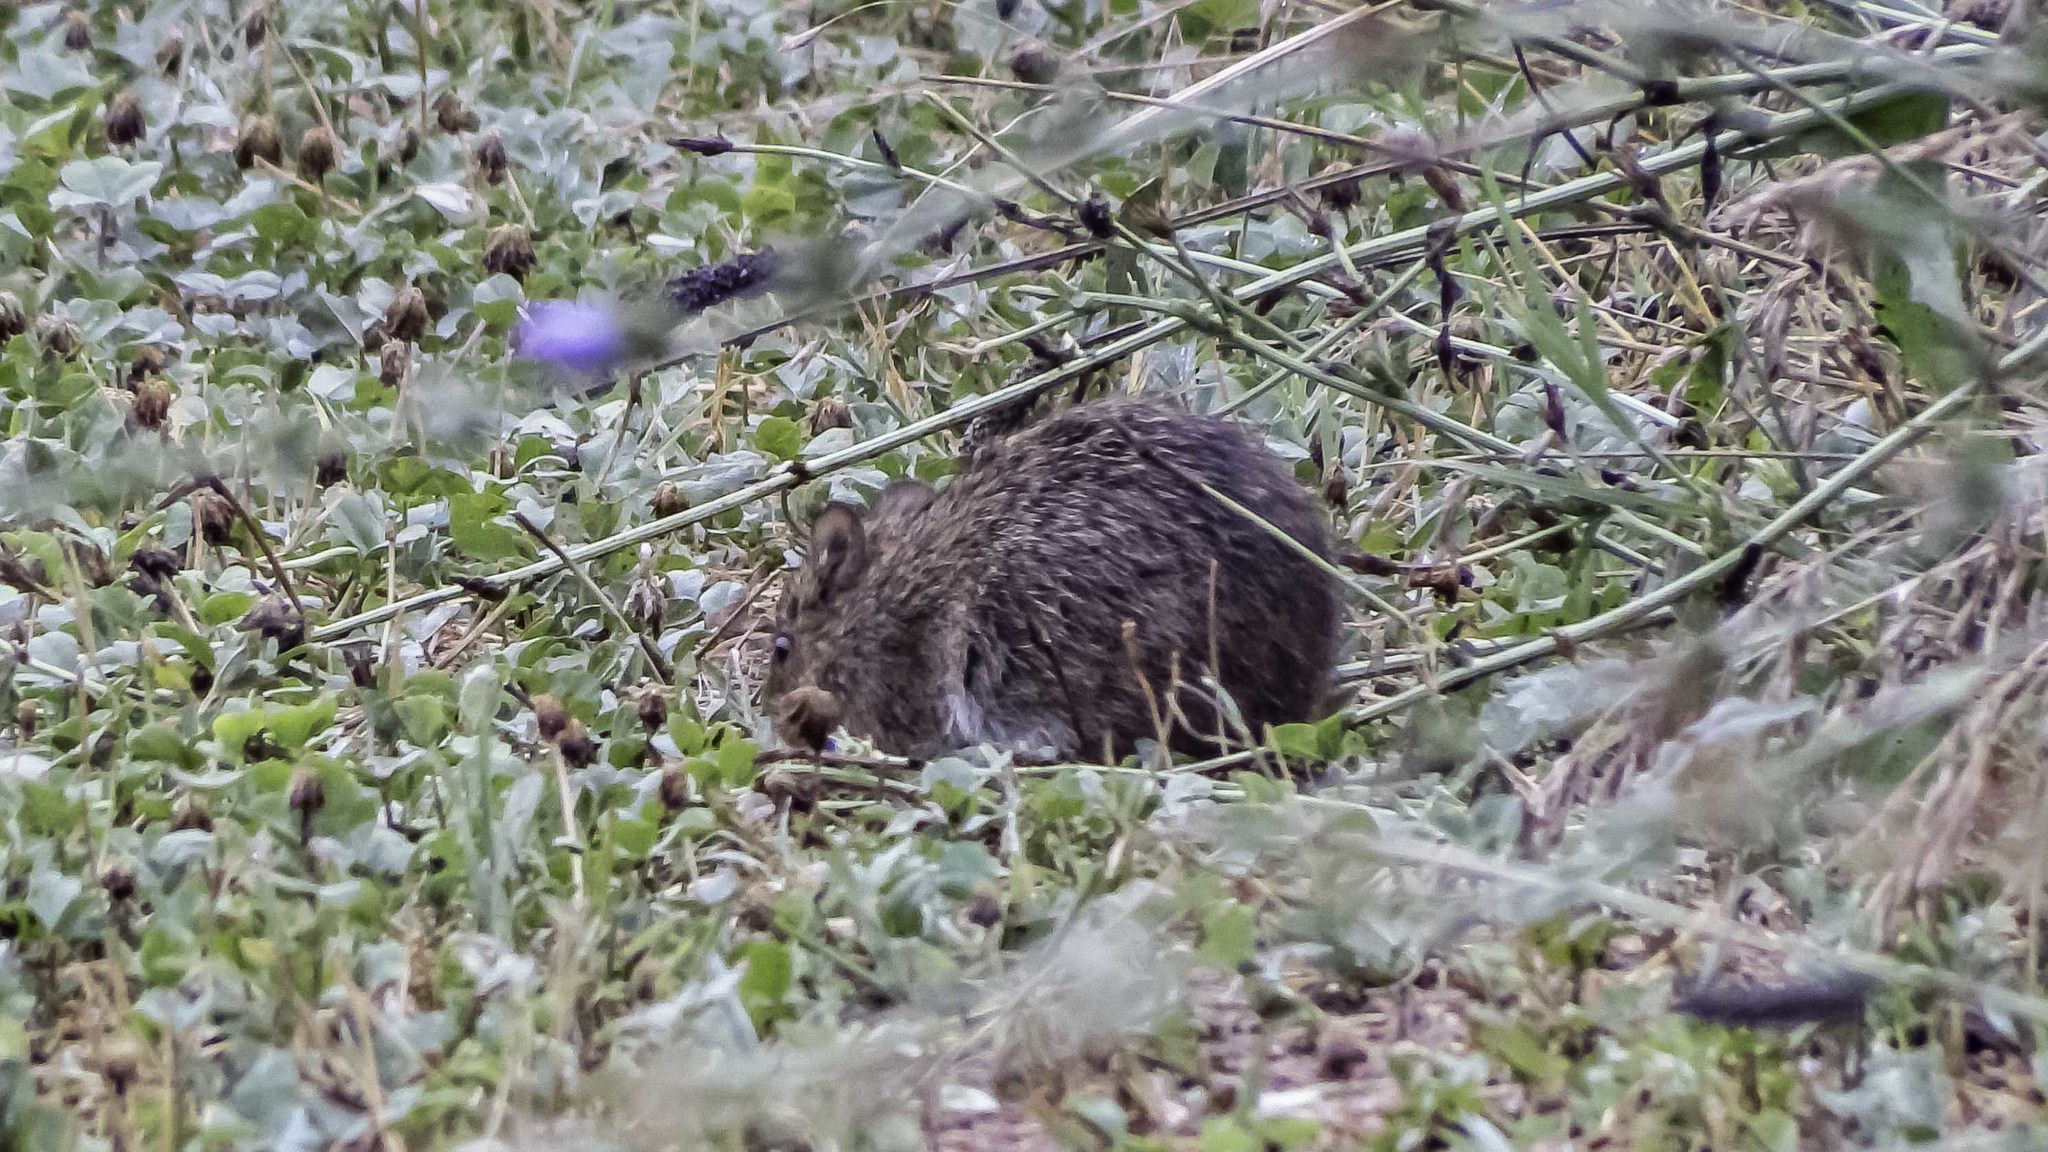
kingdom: Animalia
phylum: Chordata
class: Mammalia
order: Rodentia
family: Cricetidae
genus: Sigmodon
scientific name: Sigmodon hispidus
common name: Hispid cotton rat
